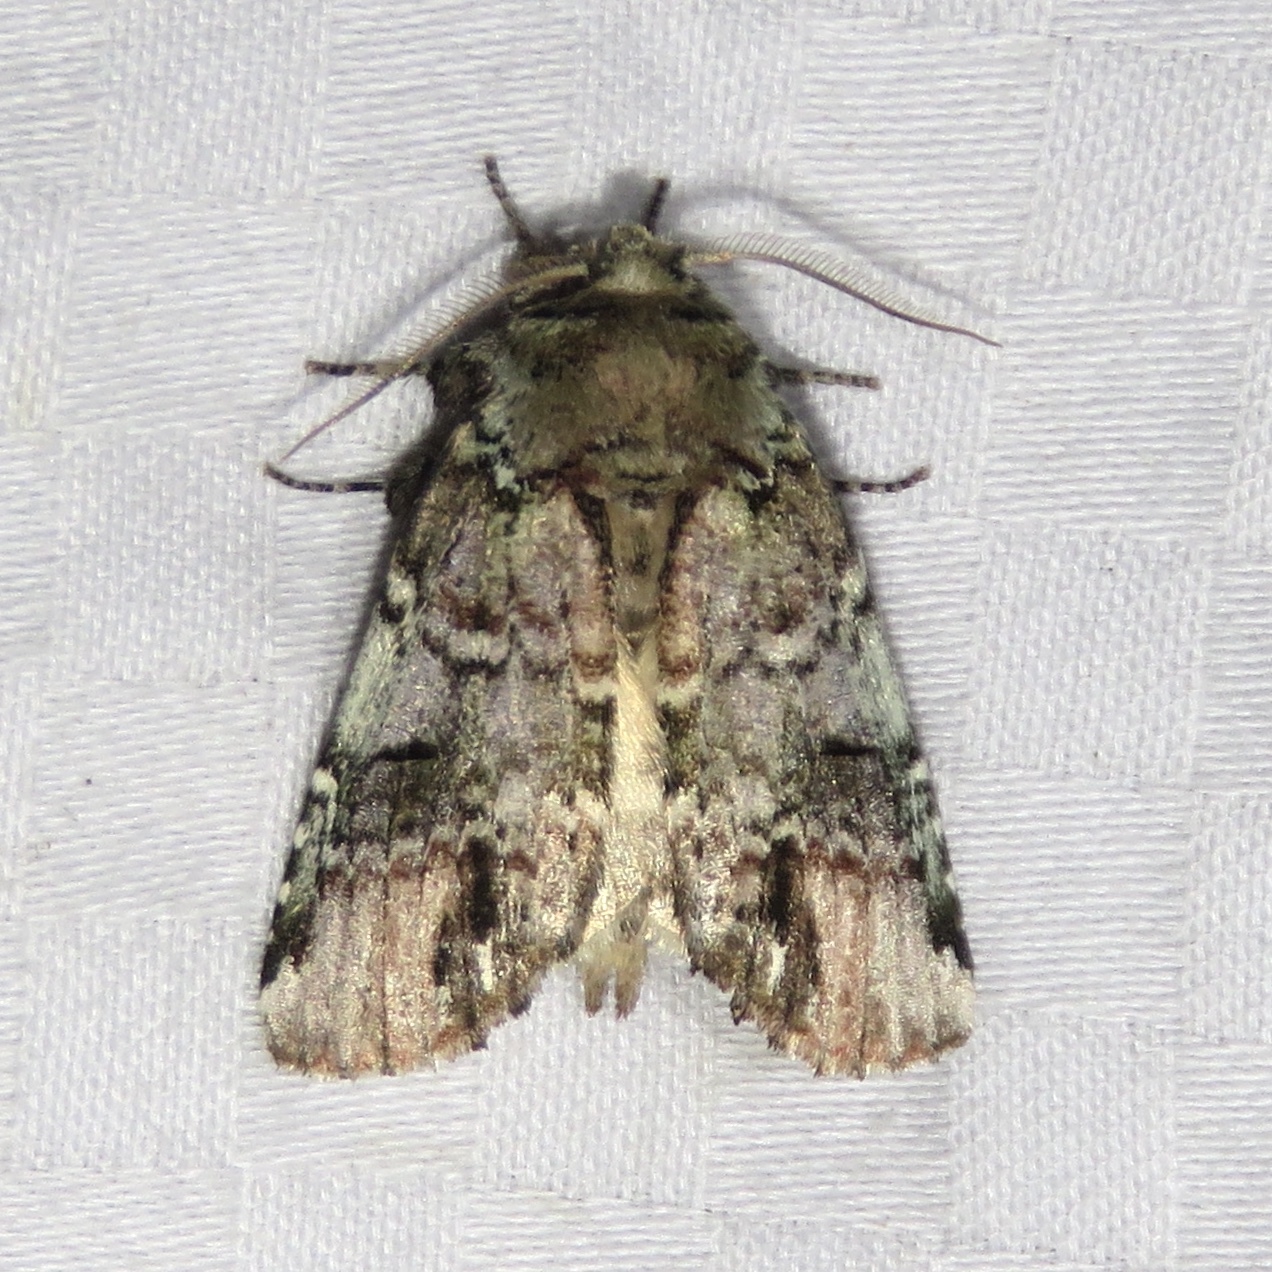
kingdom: Animalia
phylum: Arthropoda
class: Insecta
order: Lepidoptera
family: Notodontidae
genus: Schizura
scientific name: Schizura
